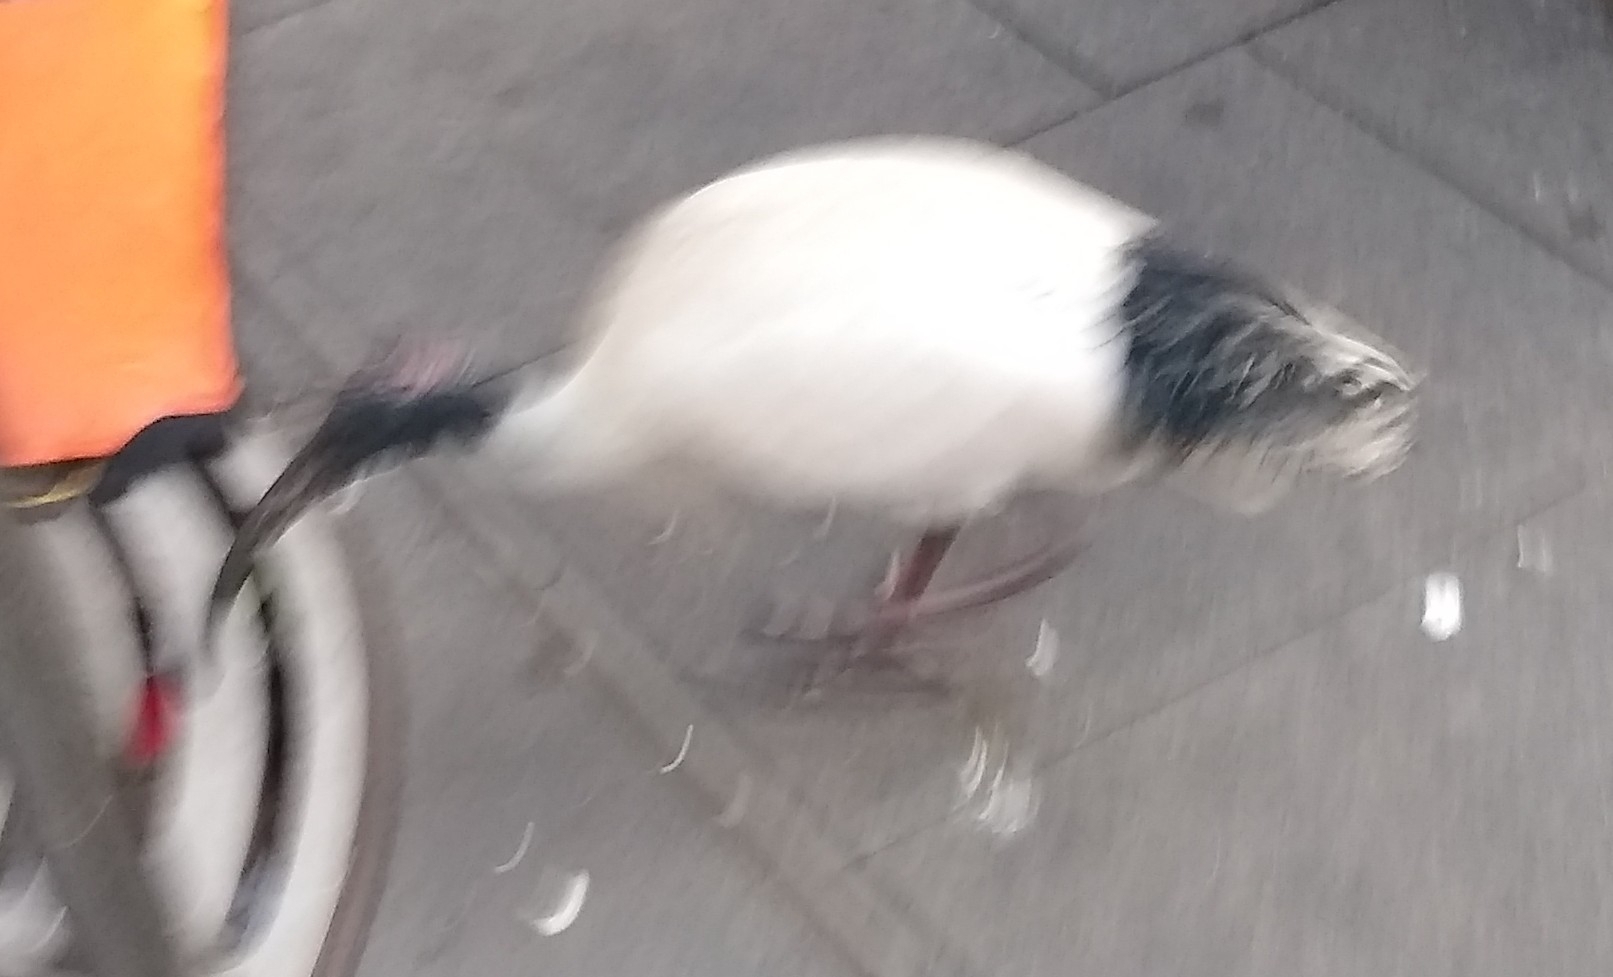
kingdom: Animalia
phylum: Chordata
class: Aves
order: Pelecaniformes
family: Threskiornithidae
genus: Threskiornis
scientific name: Threskiornis molucca
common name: Australian white ibis
